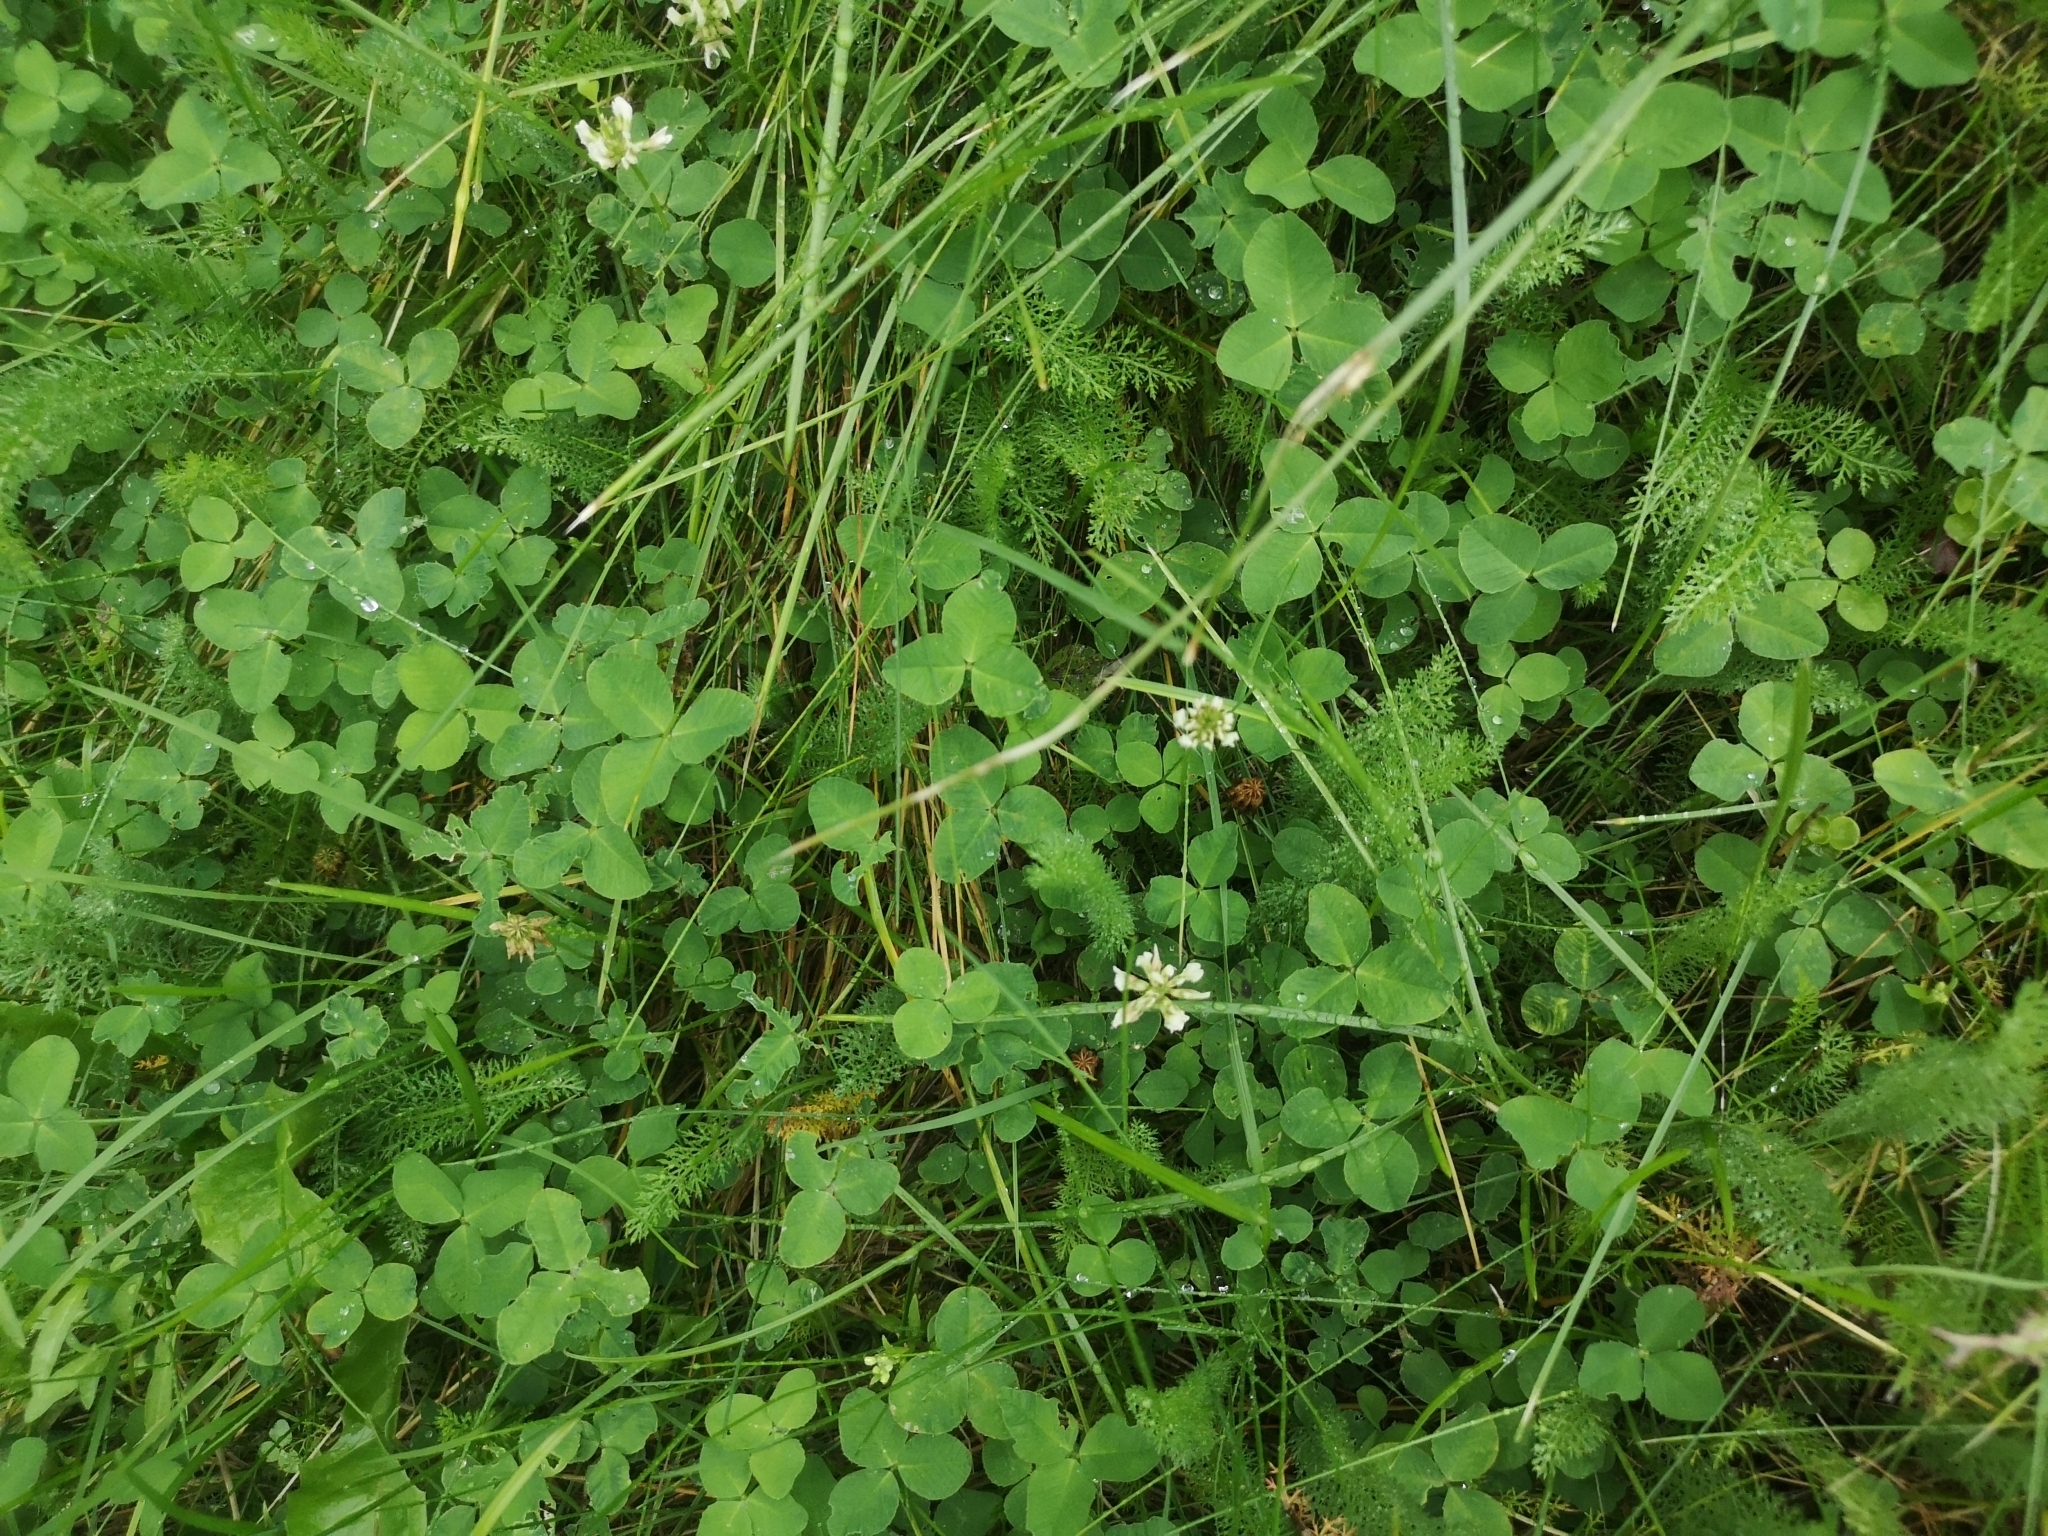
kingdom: Plantae
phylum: Tracheophyta
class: Magnoliopsida
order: Fabales
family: Fabaceae
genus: Trifolium
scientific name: Trifolium repens
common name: White clover
